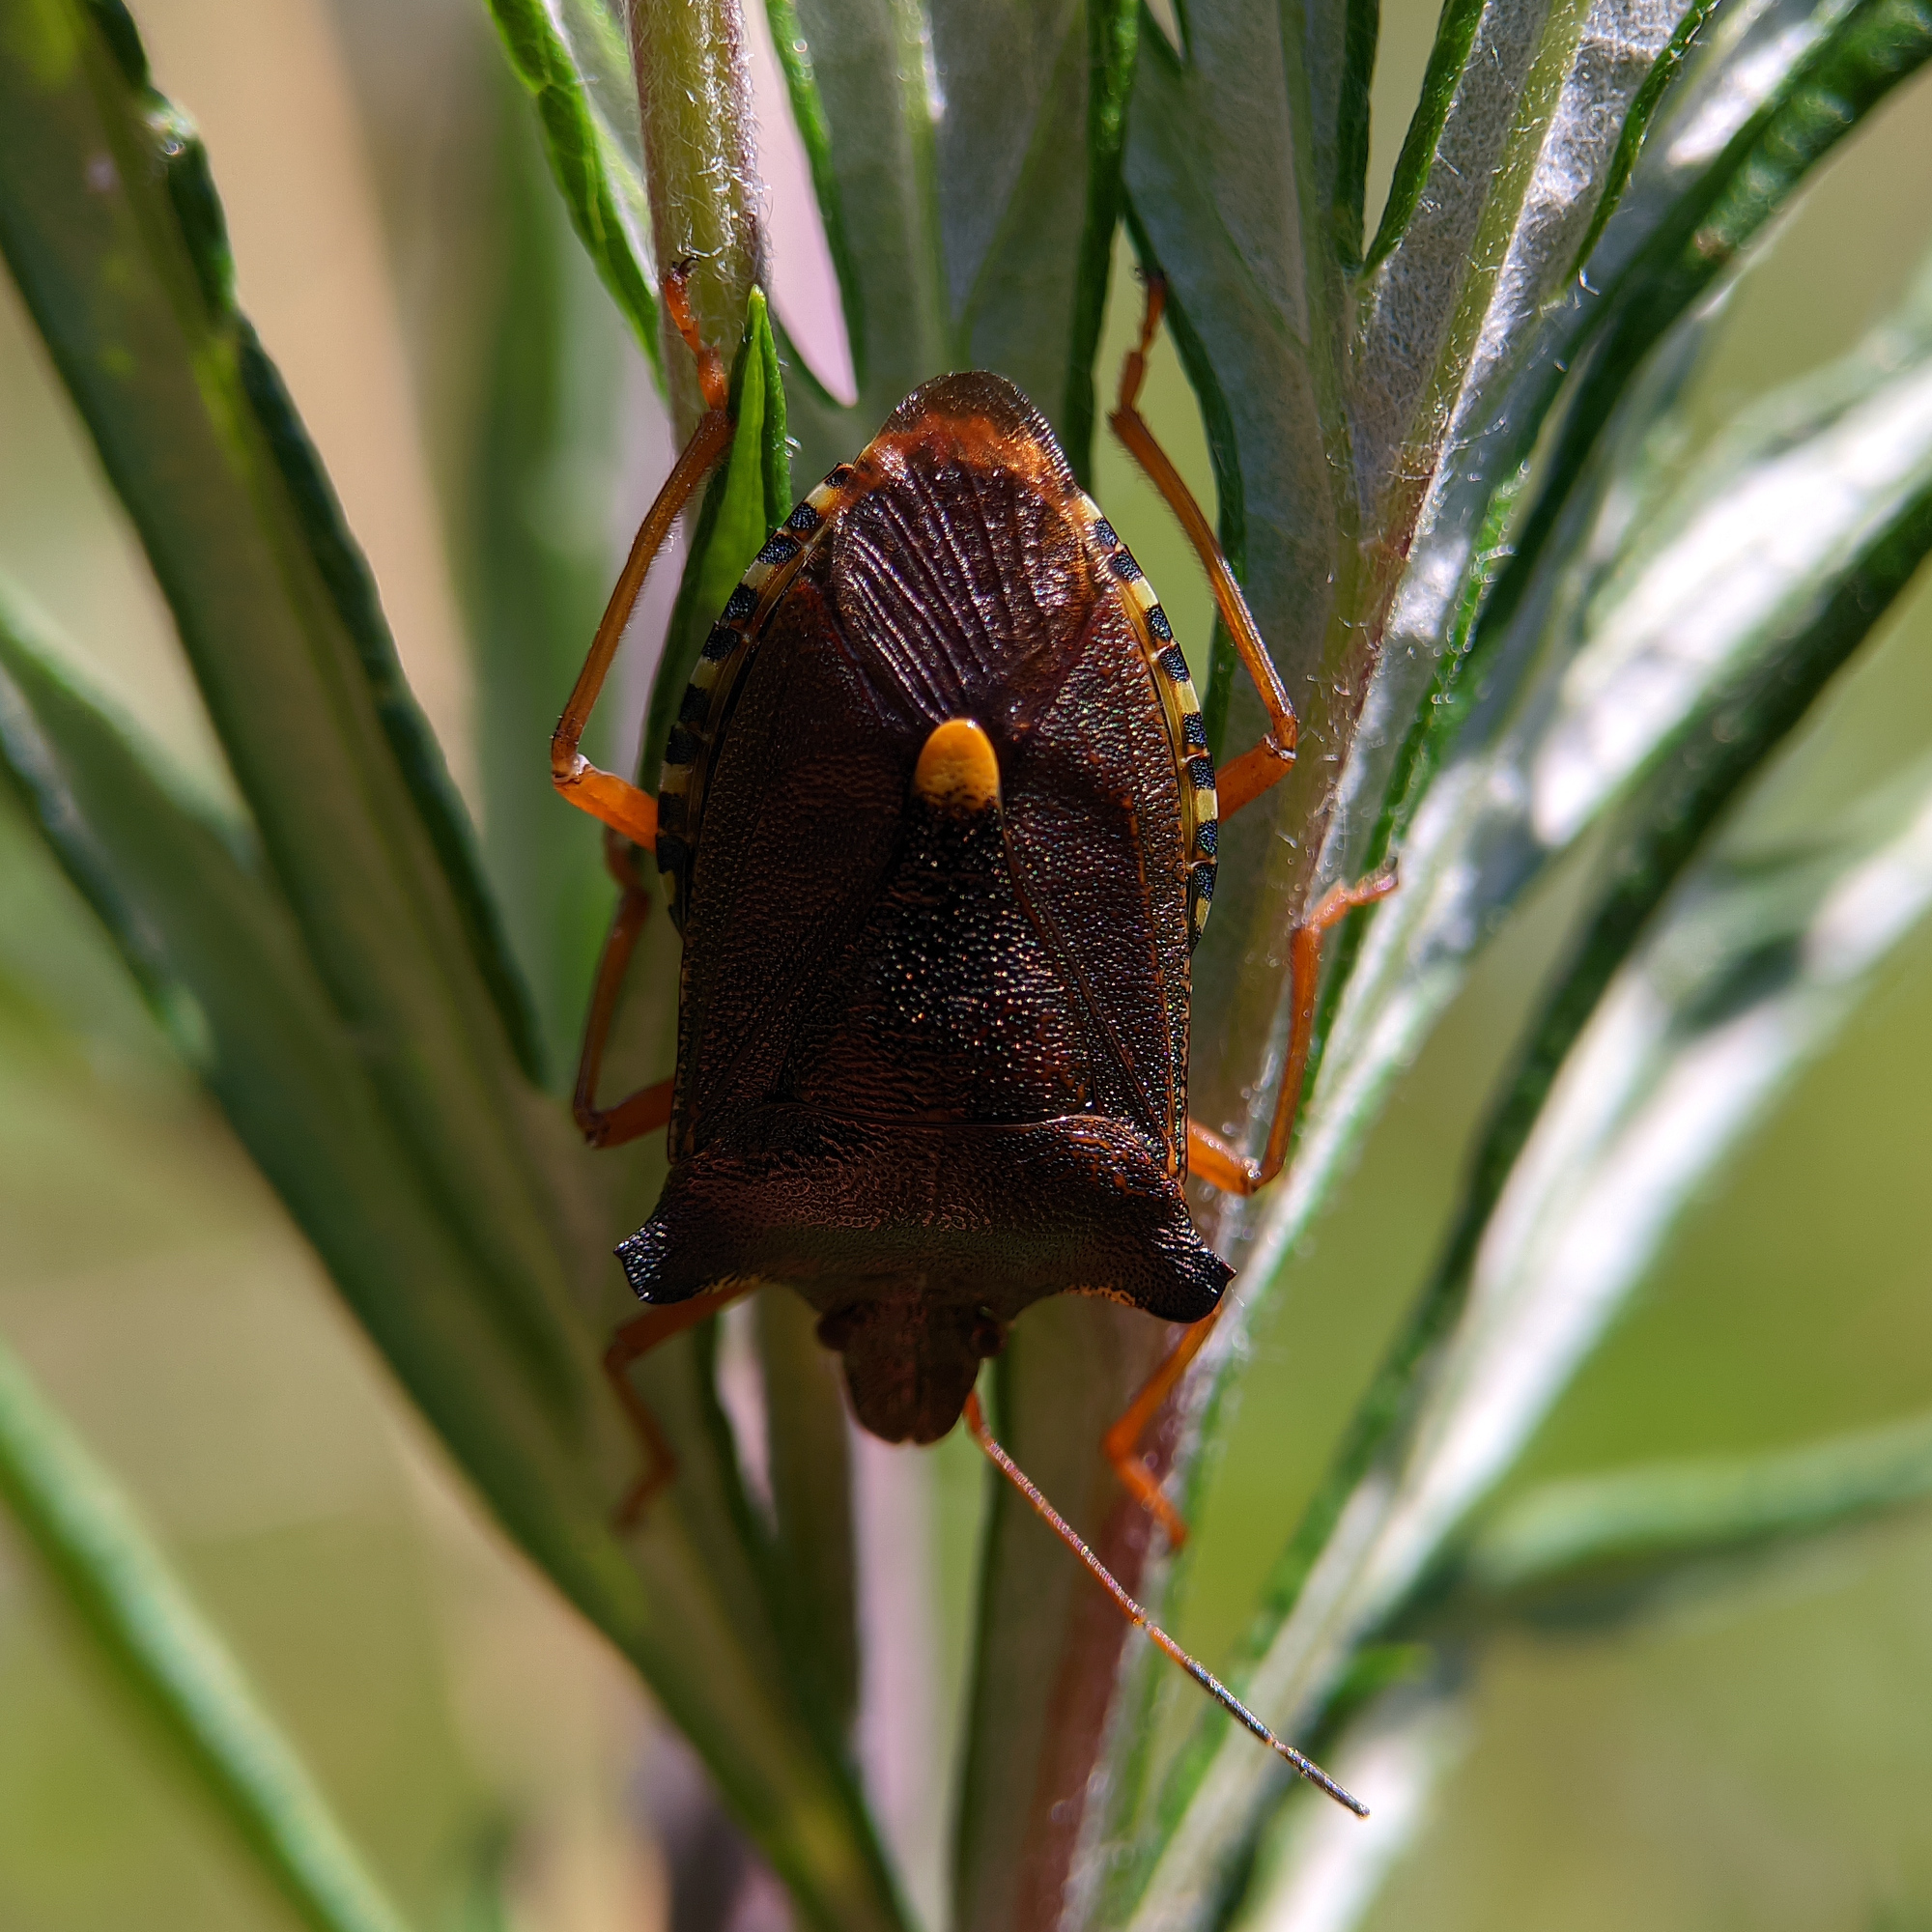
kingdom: Animalia
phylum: Arthropoda
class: Insecta
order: Hemiptera
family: Pentatomidae
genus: Pentatoma
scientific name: Pentatoma rufipes
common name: Forest bug
